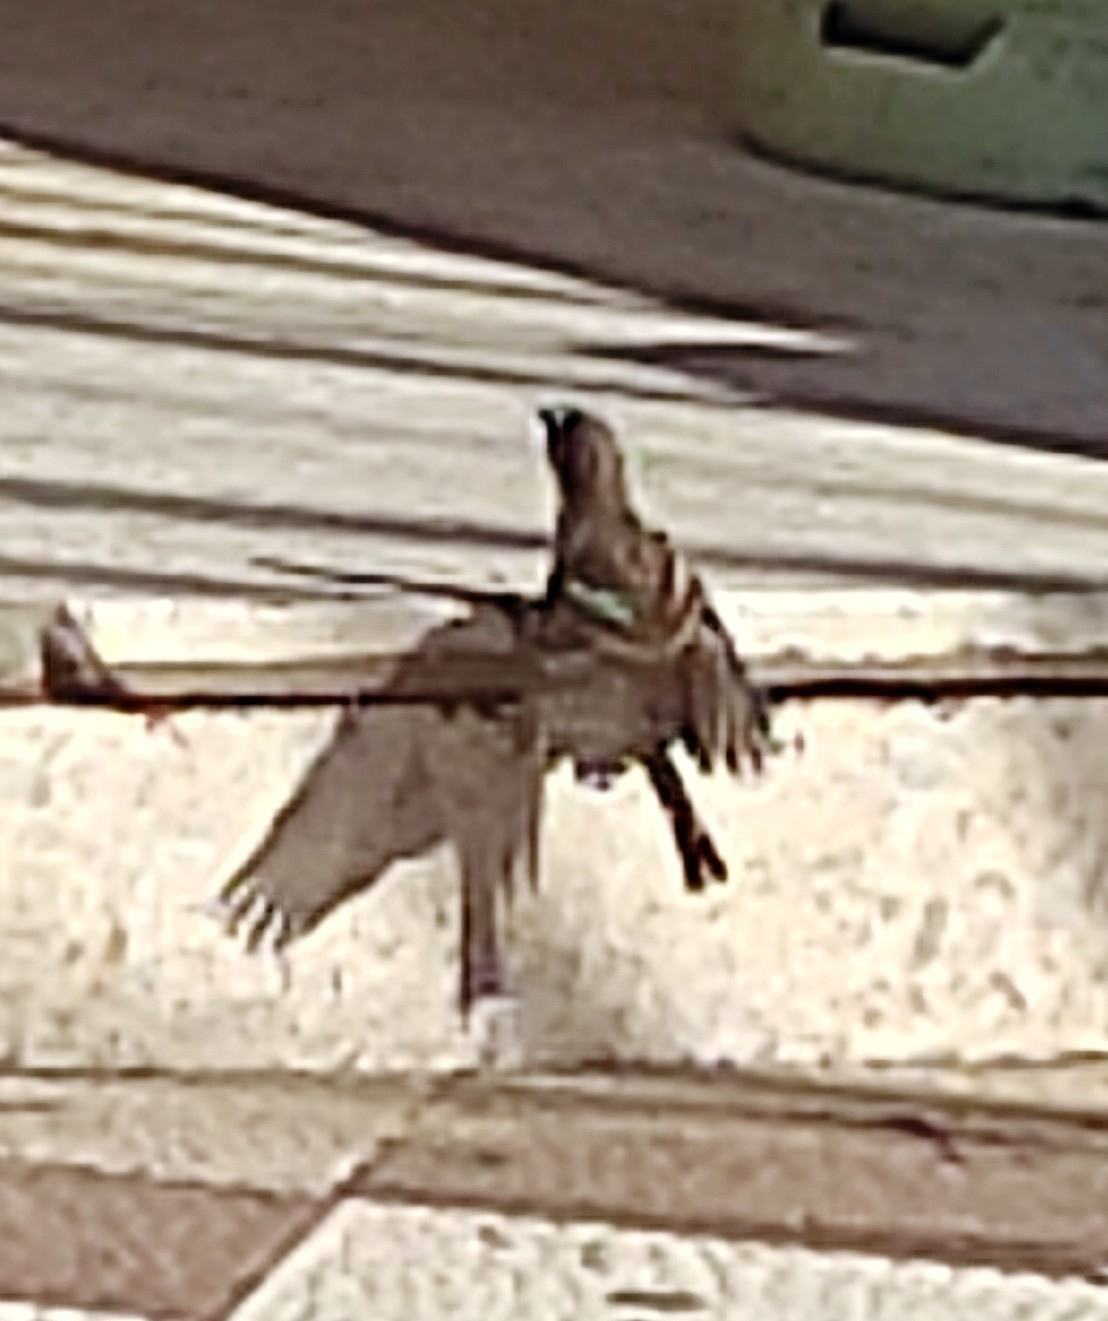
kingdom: Animalia
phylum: Chordata
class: Aves
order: Passeriformes
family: Passeridae
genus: Passer
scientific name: Passer domesticus
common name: House sparrow
